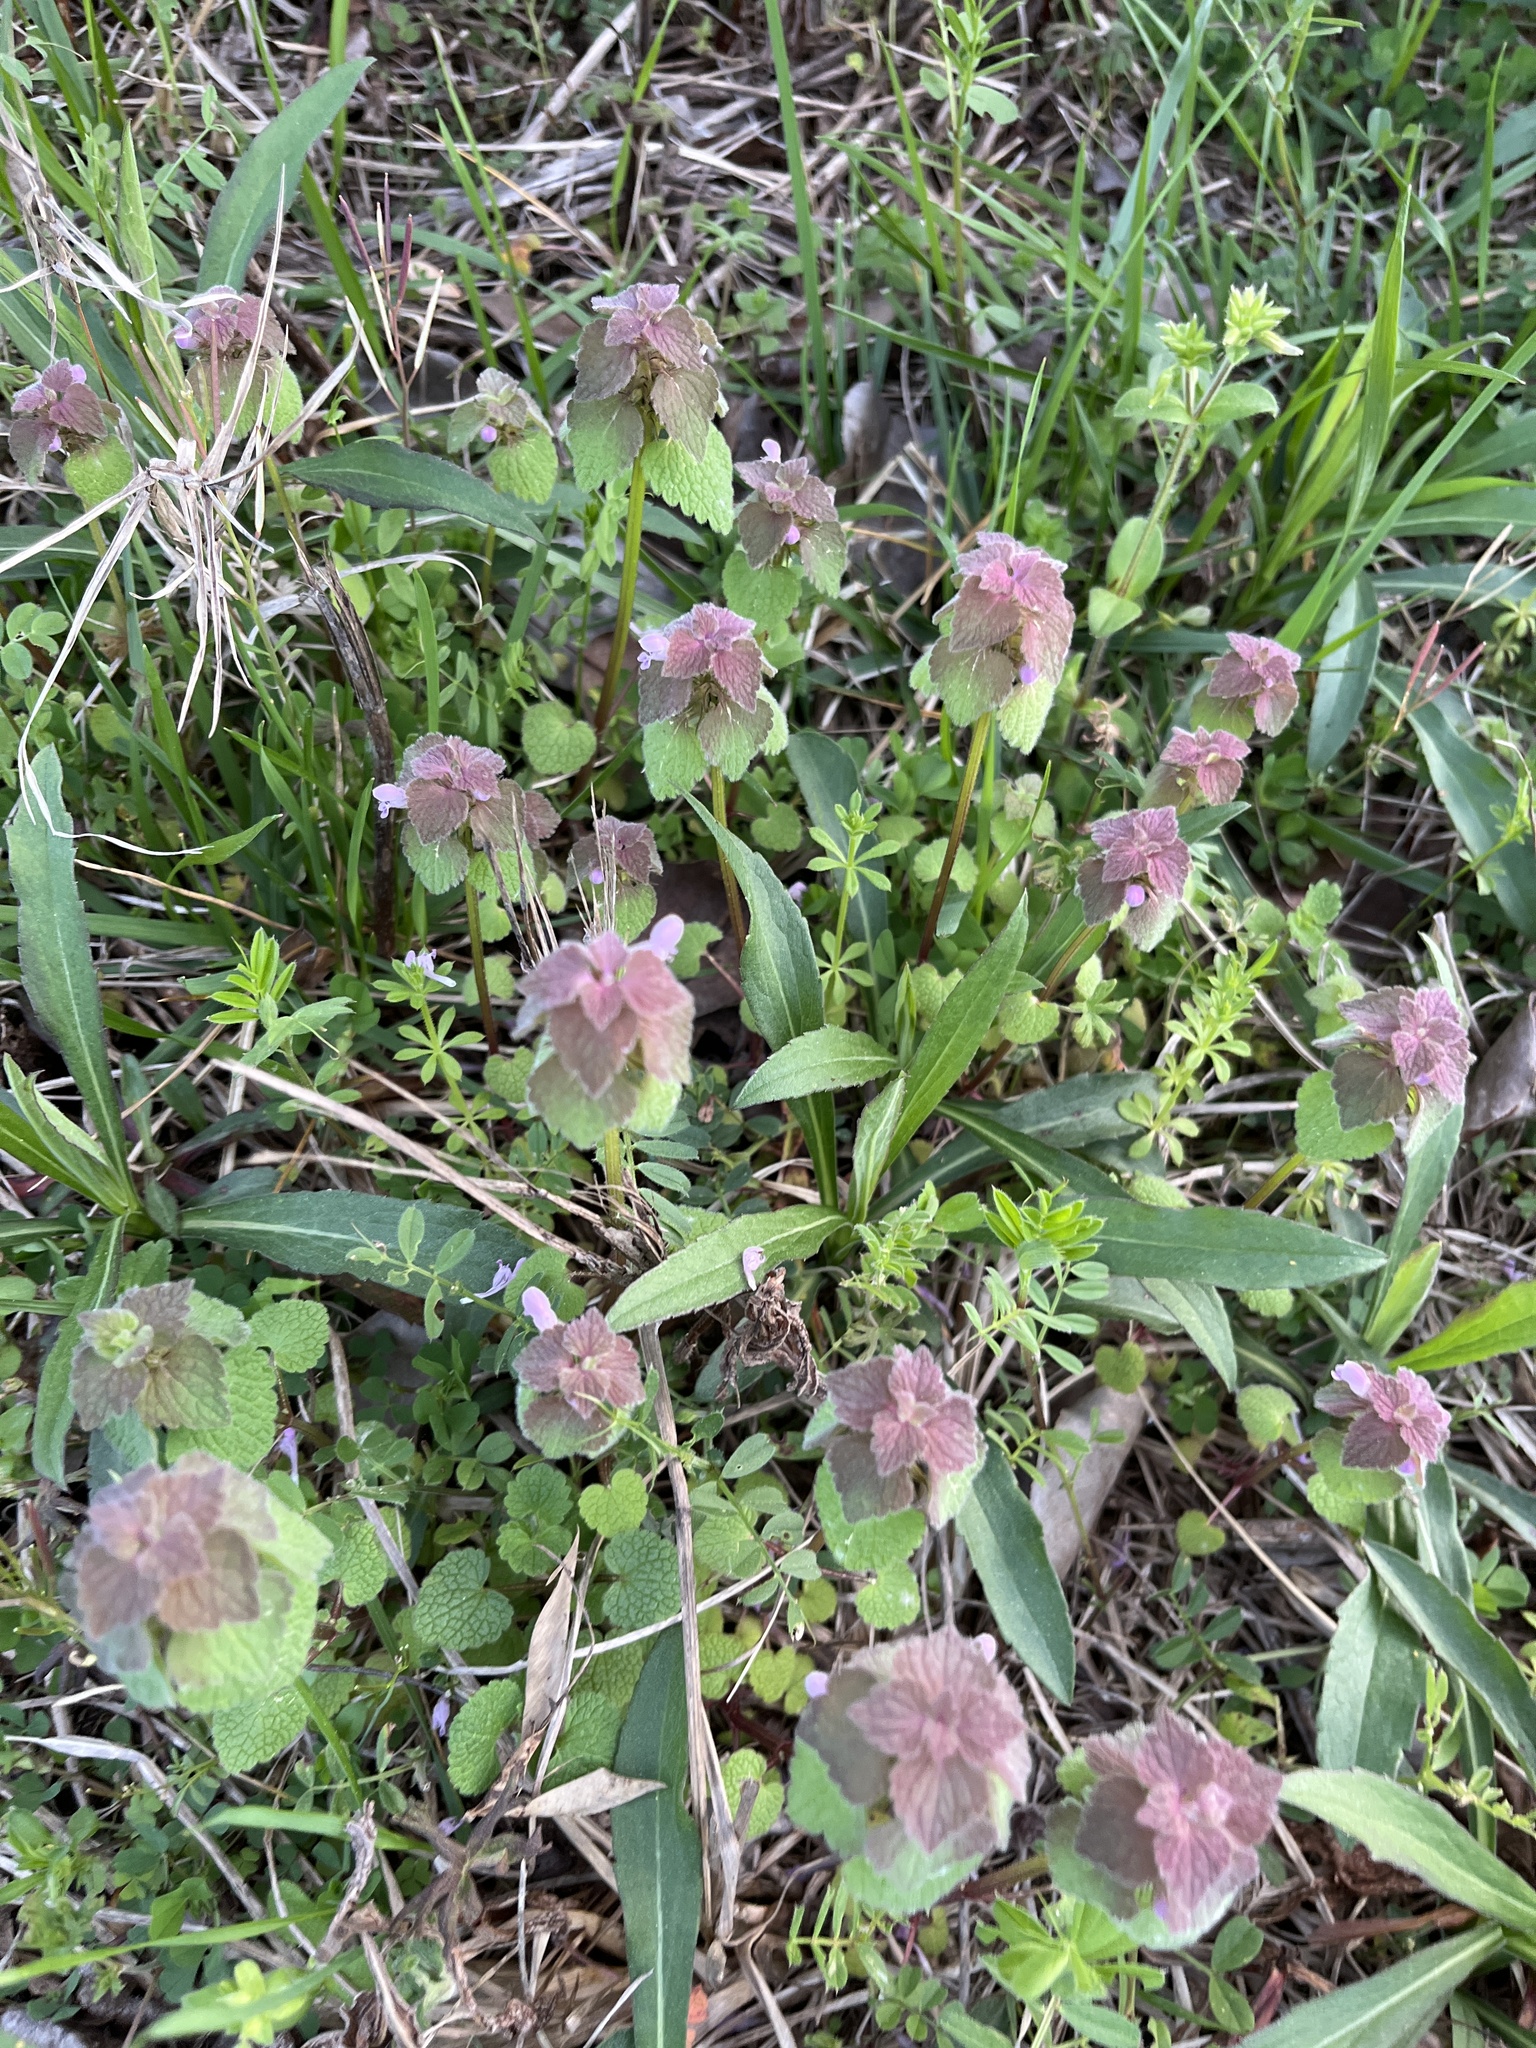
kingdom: Plantae
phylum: Tracheophyta
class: Magnoliopsida
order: Lamiales
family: Lamiaceae
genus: Lamium
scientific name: Lamium purpureum
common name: Red dead-nettle
